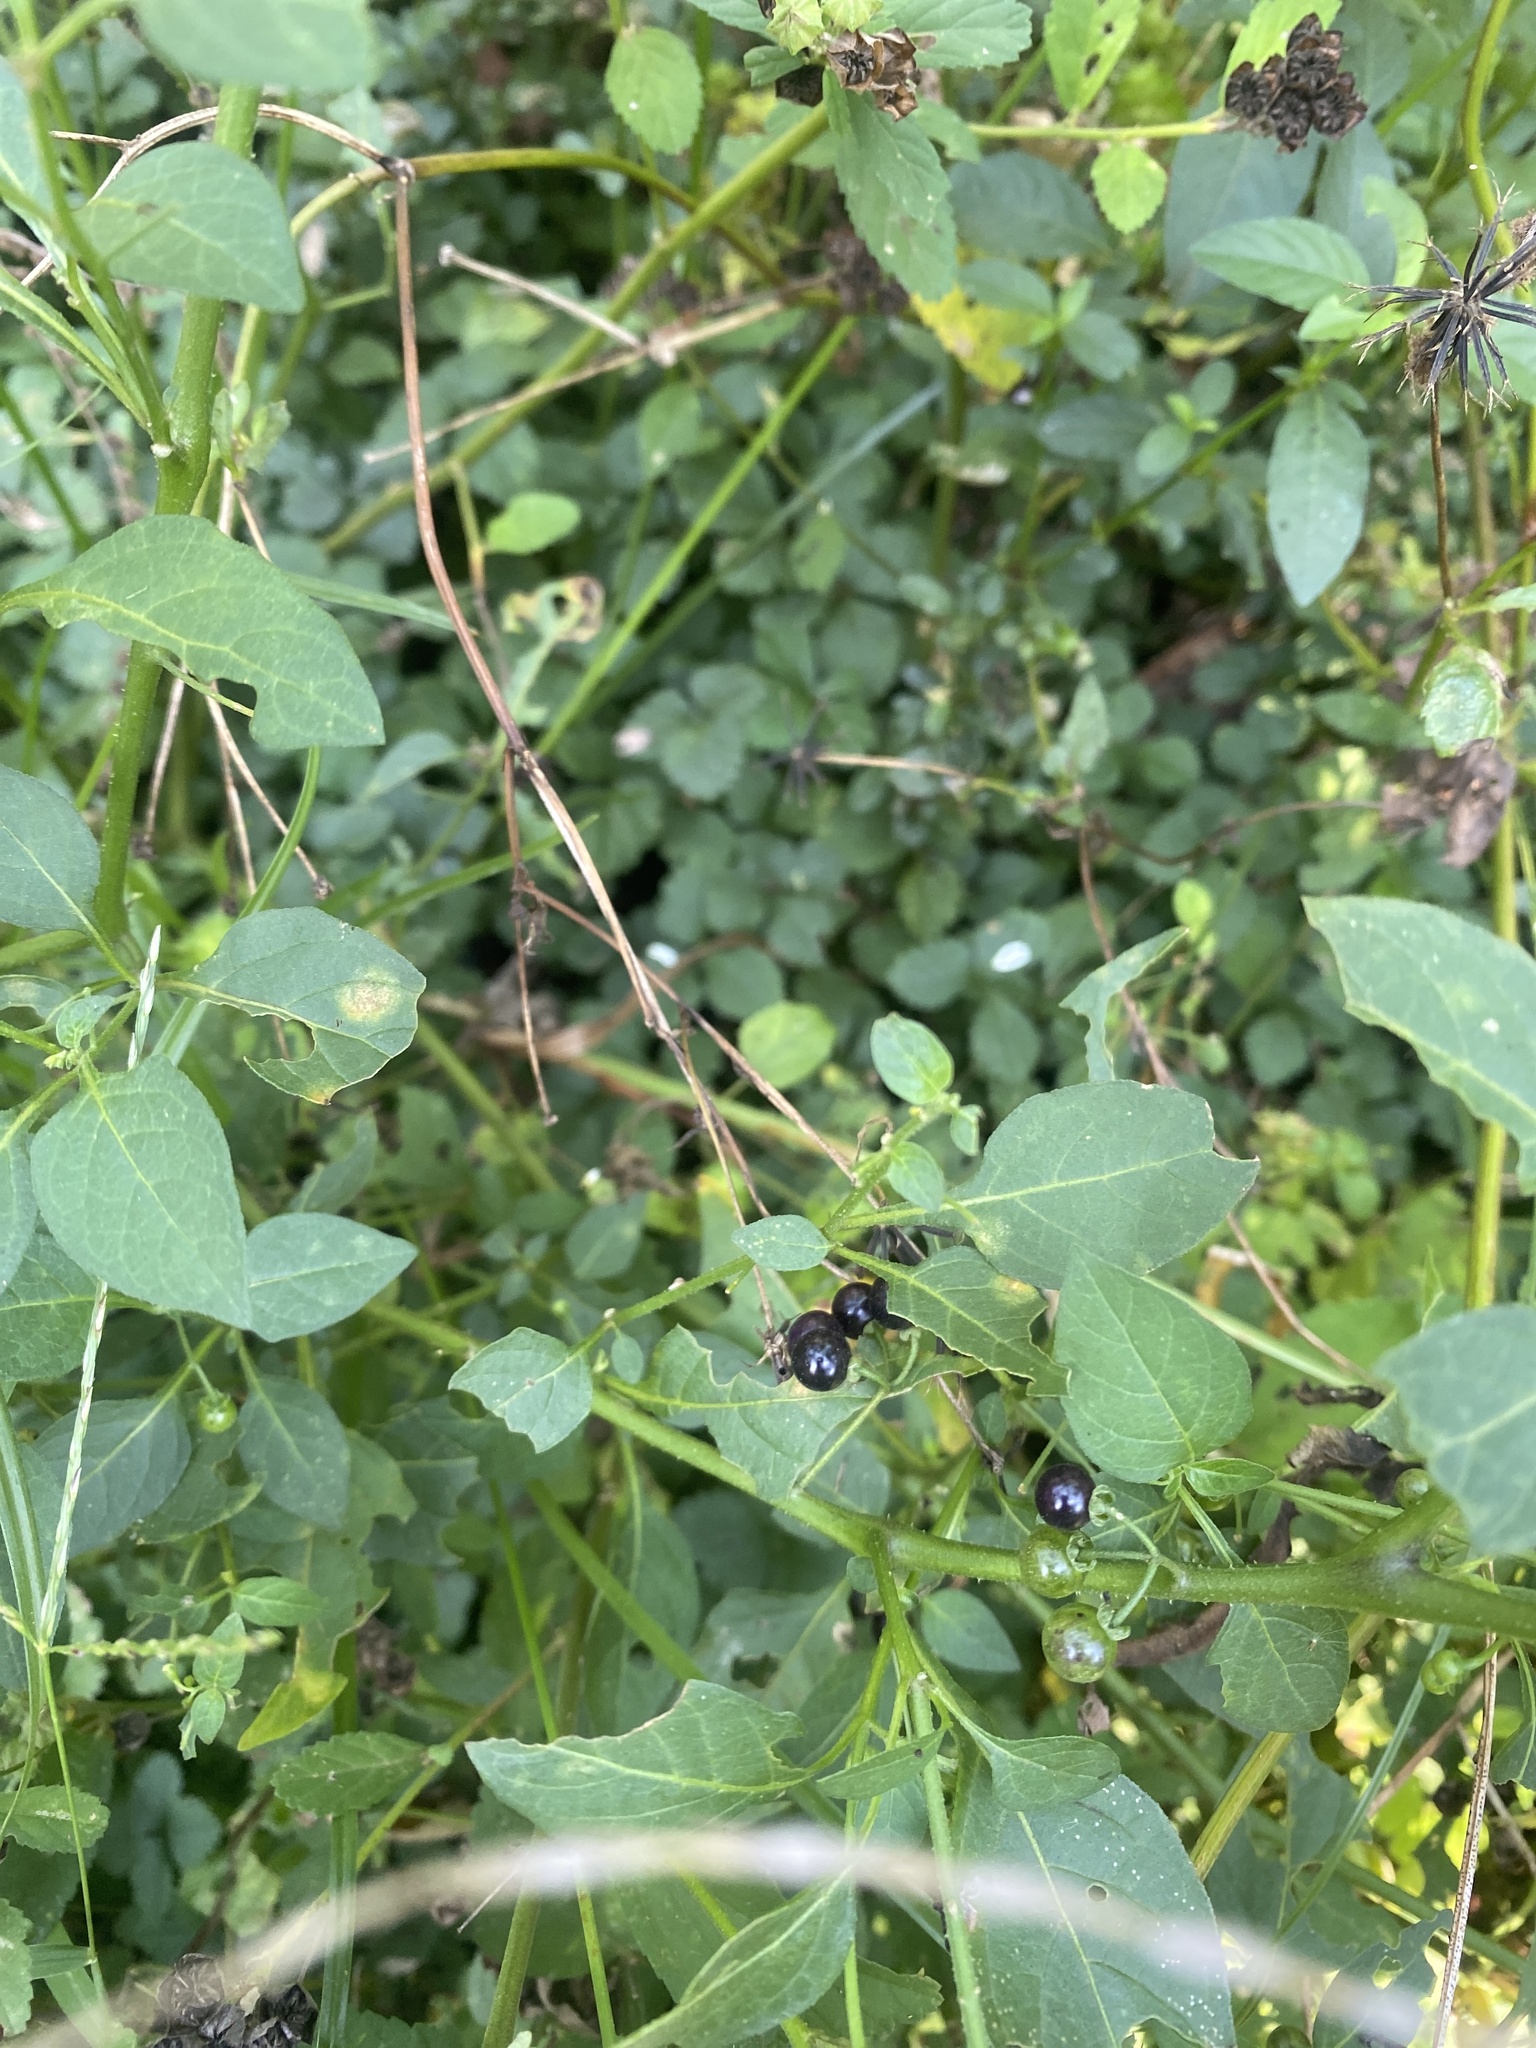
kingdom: Plantae
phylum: Tracheophyta
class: Magnoliopsida
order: Solanales
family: Solanaceae
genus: Solanum
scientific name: Solanum americanum
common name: American black nightshade
